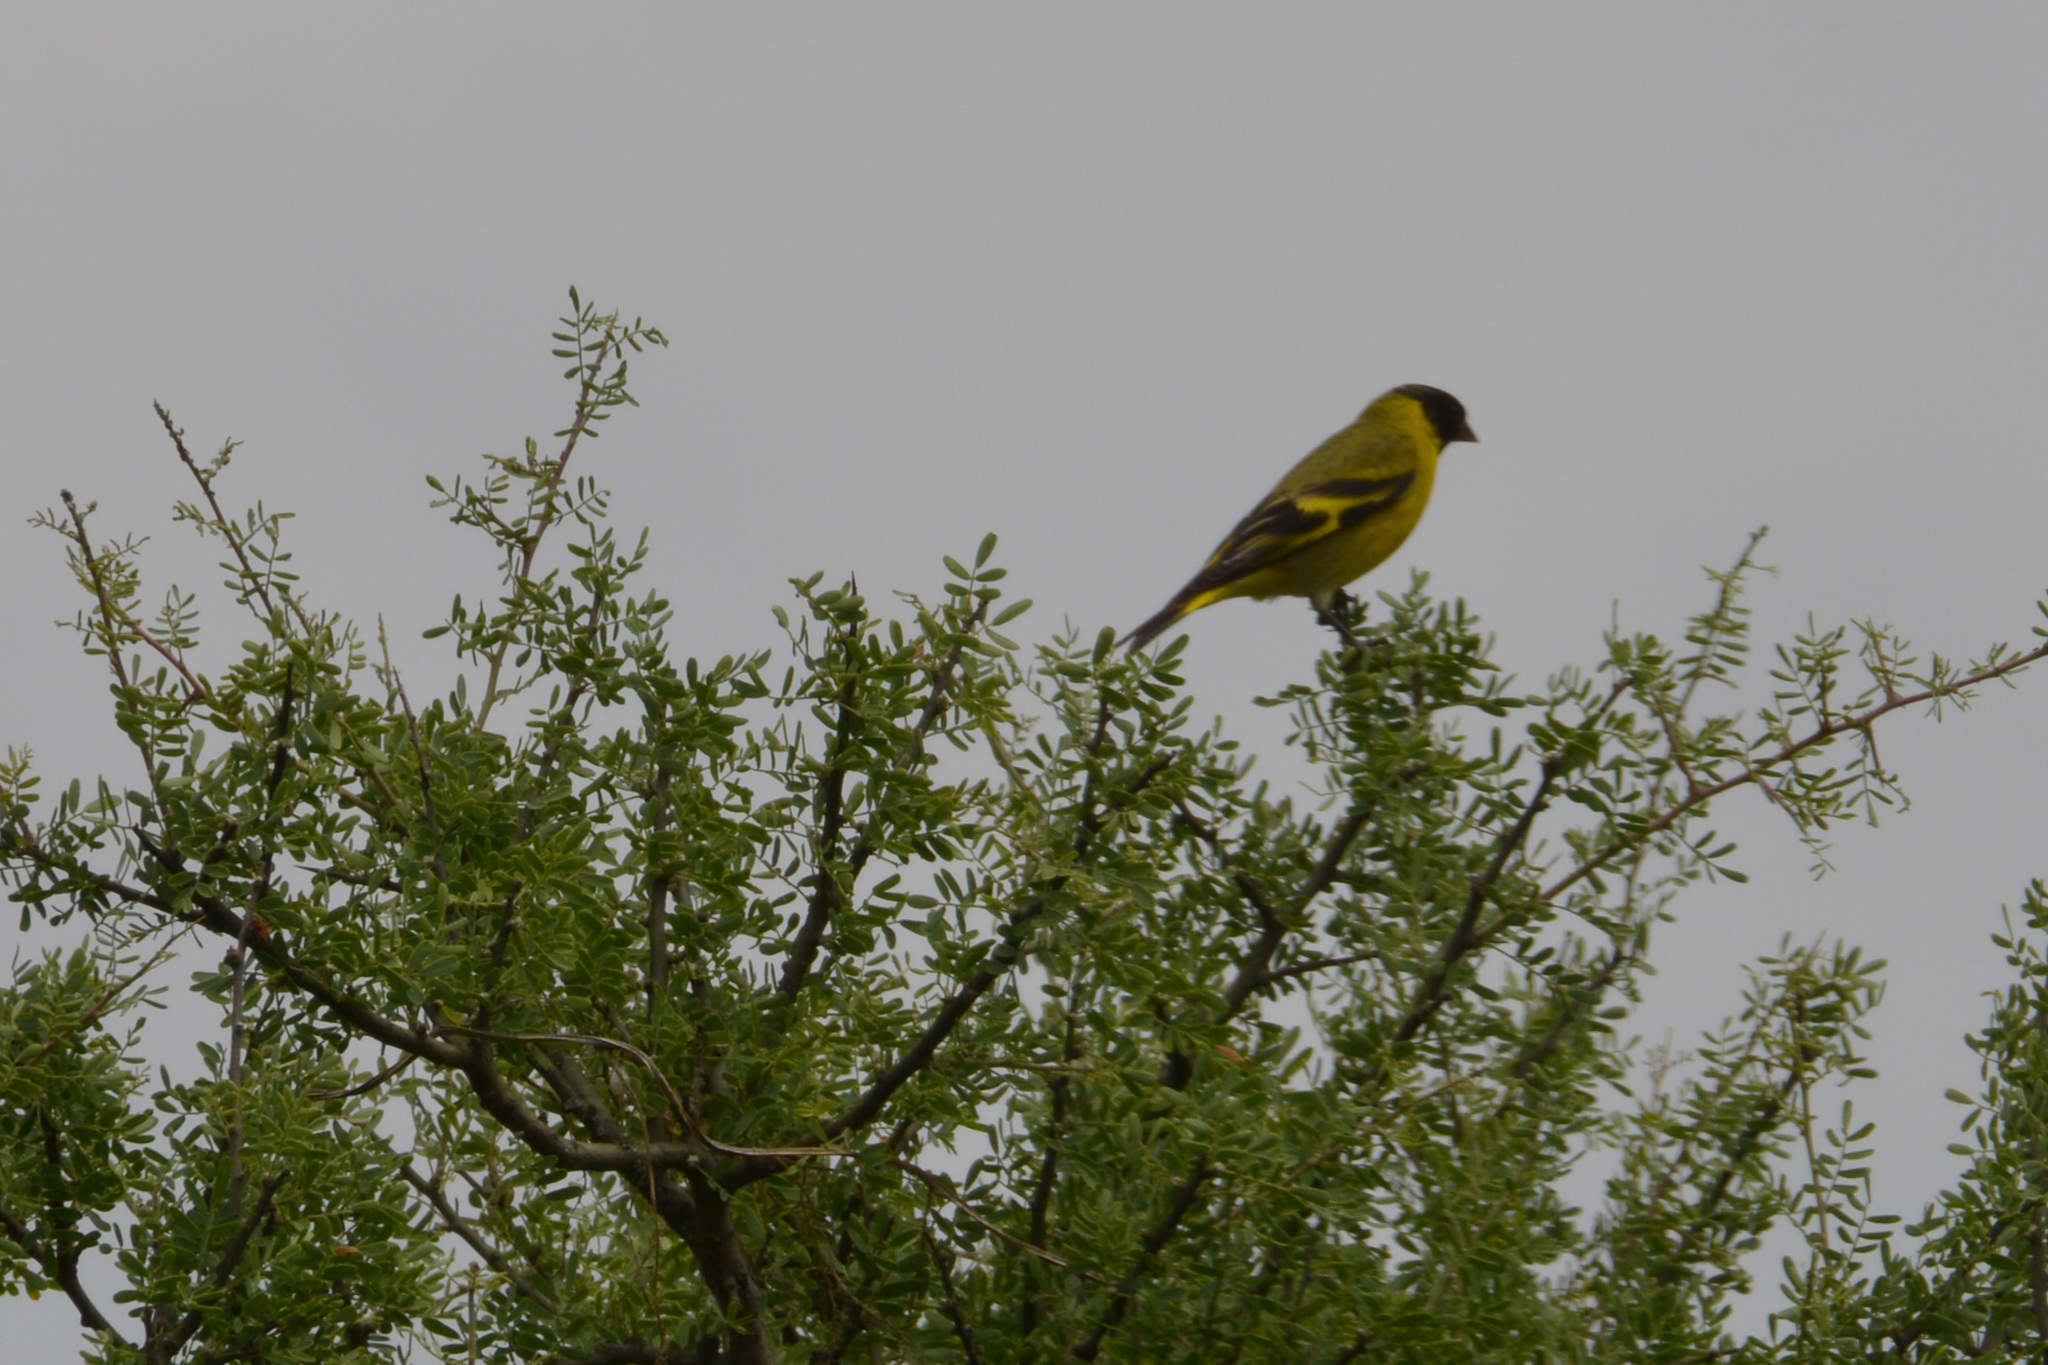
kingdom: Animalia
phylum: Chordata
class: Aves
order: Passeriformes
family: Fringillidae
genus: Spinus
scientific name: Spinus magellanicus
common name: Hooded siskin
